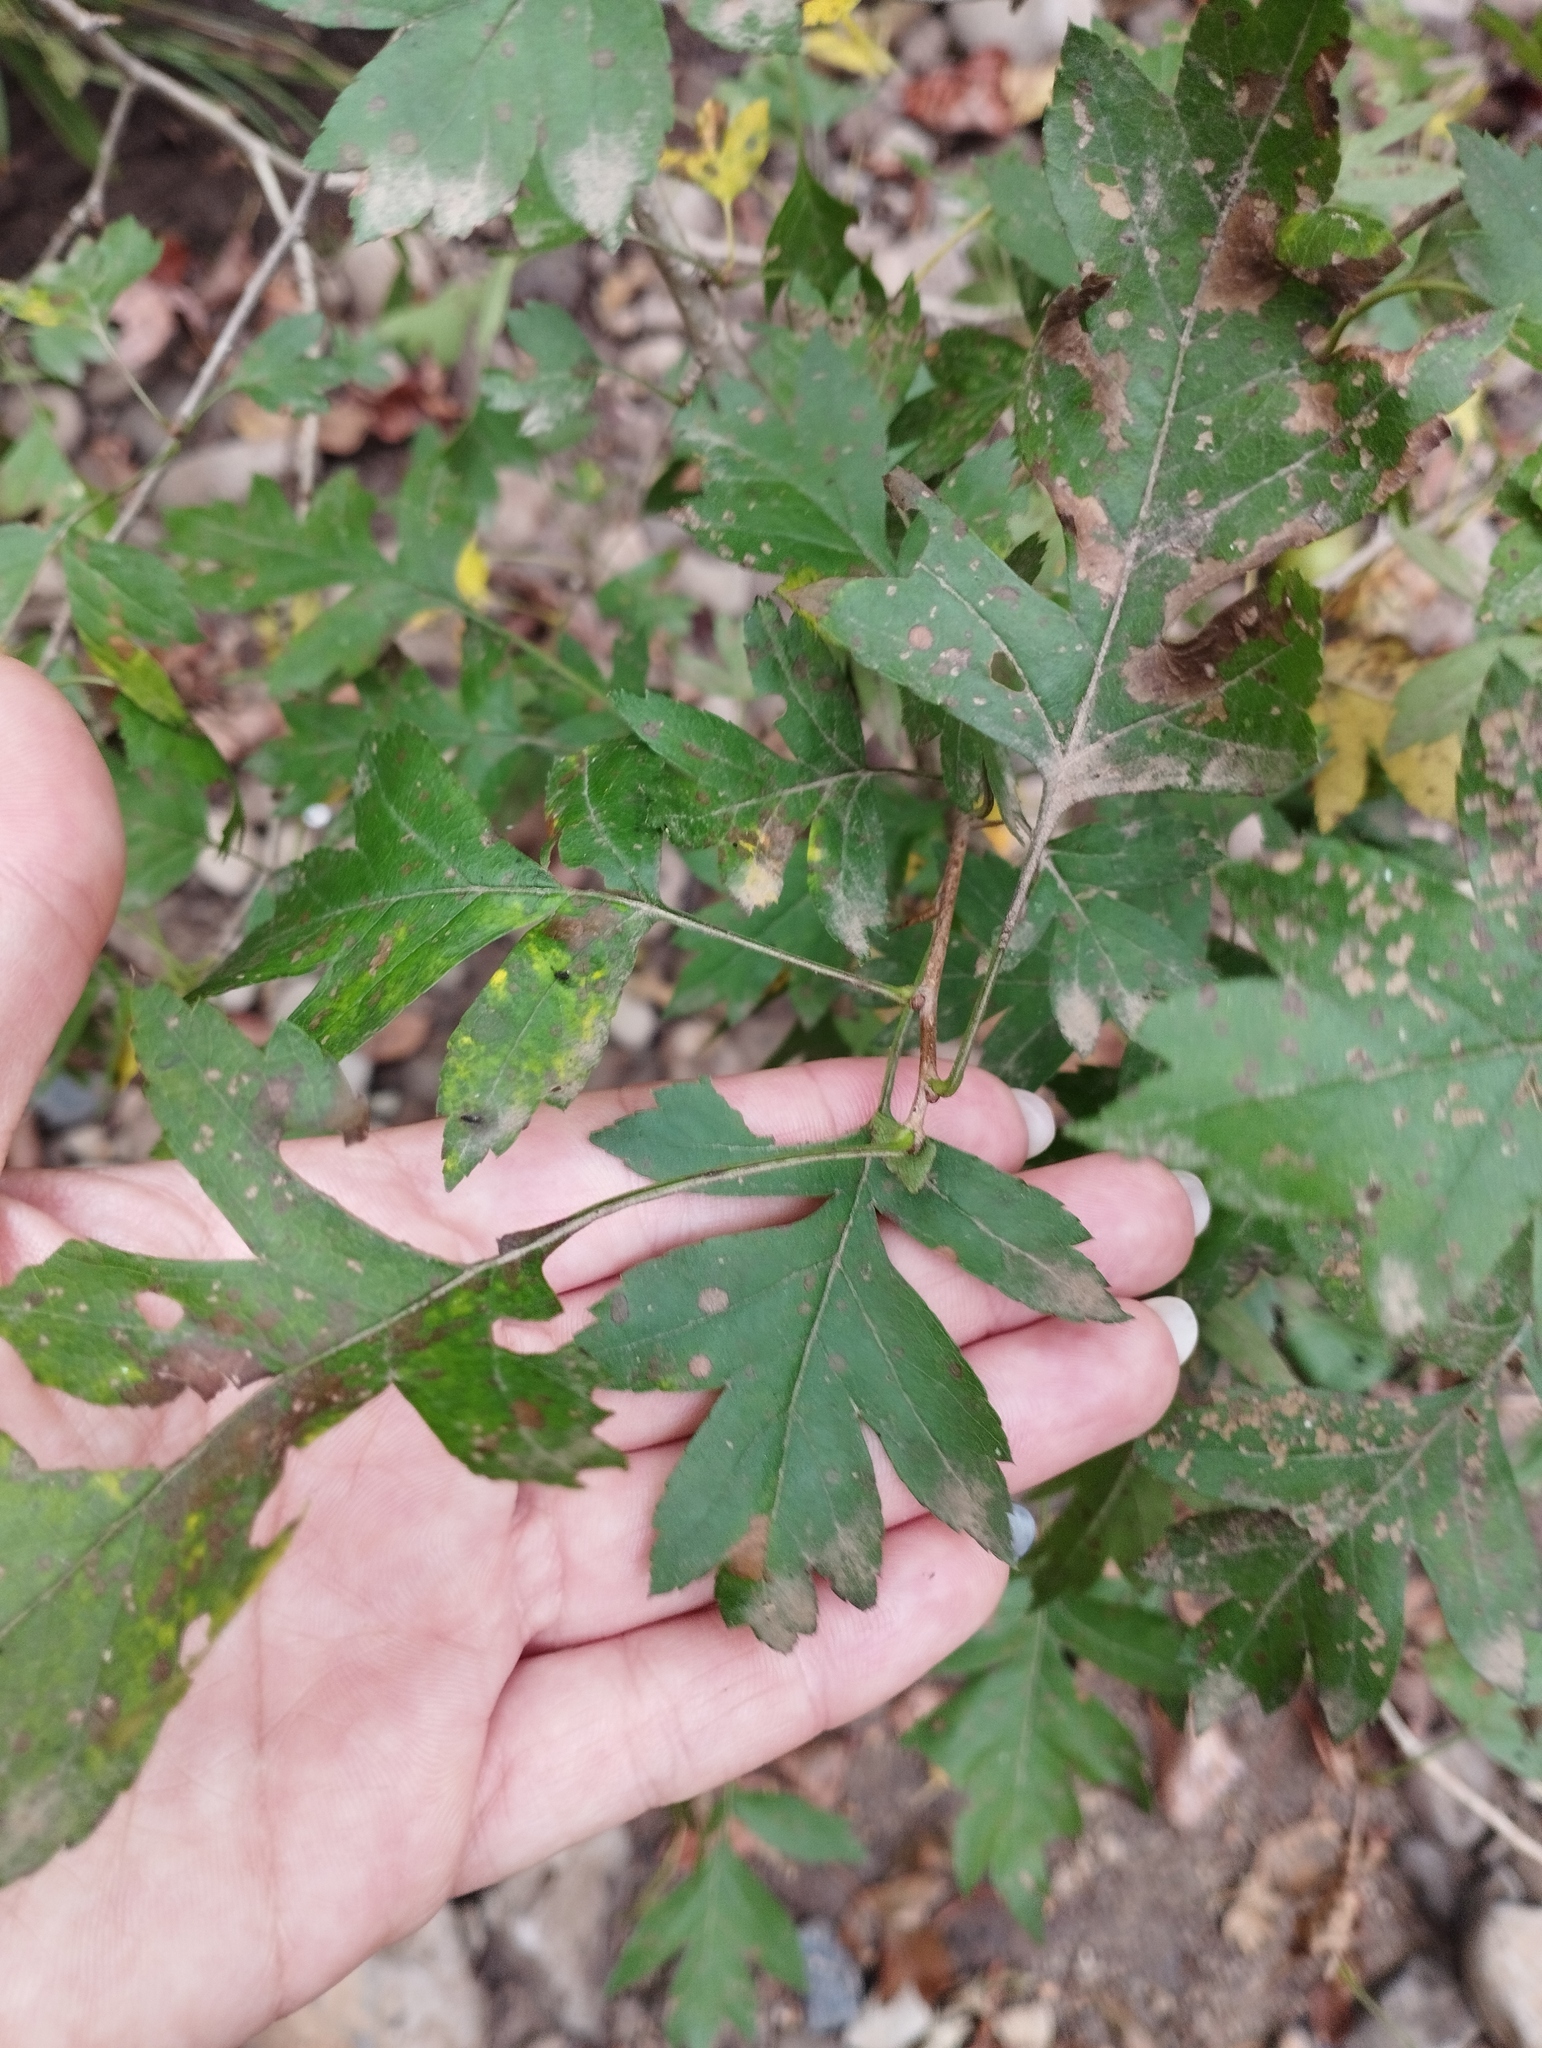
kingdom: Plantae
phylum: Tracheophyta
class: Magnoliopsida
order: Rosales
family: Rosaceae
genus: Crataegus
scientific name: Crataegus pinnatifida
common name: Chinese haw
